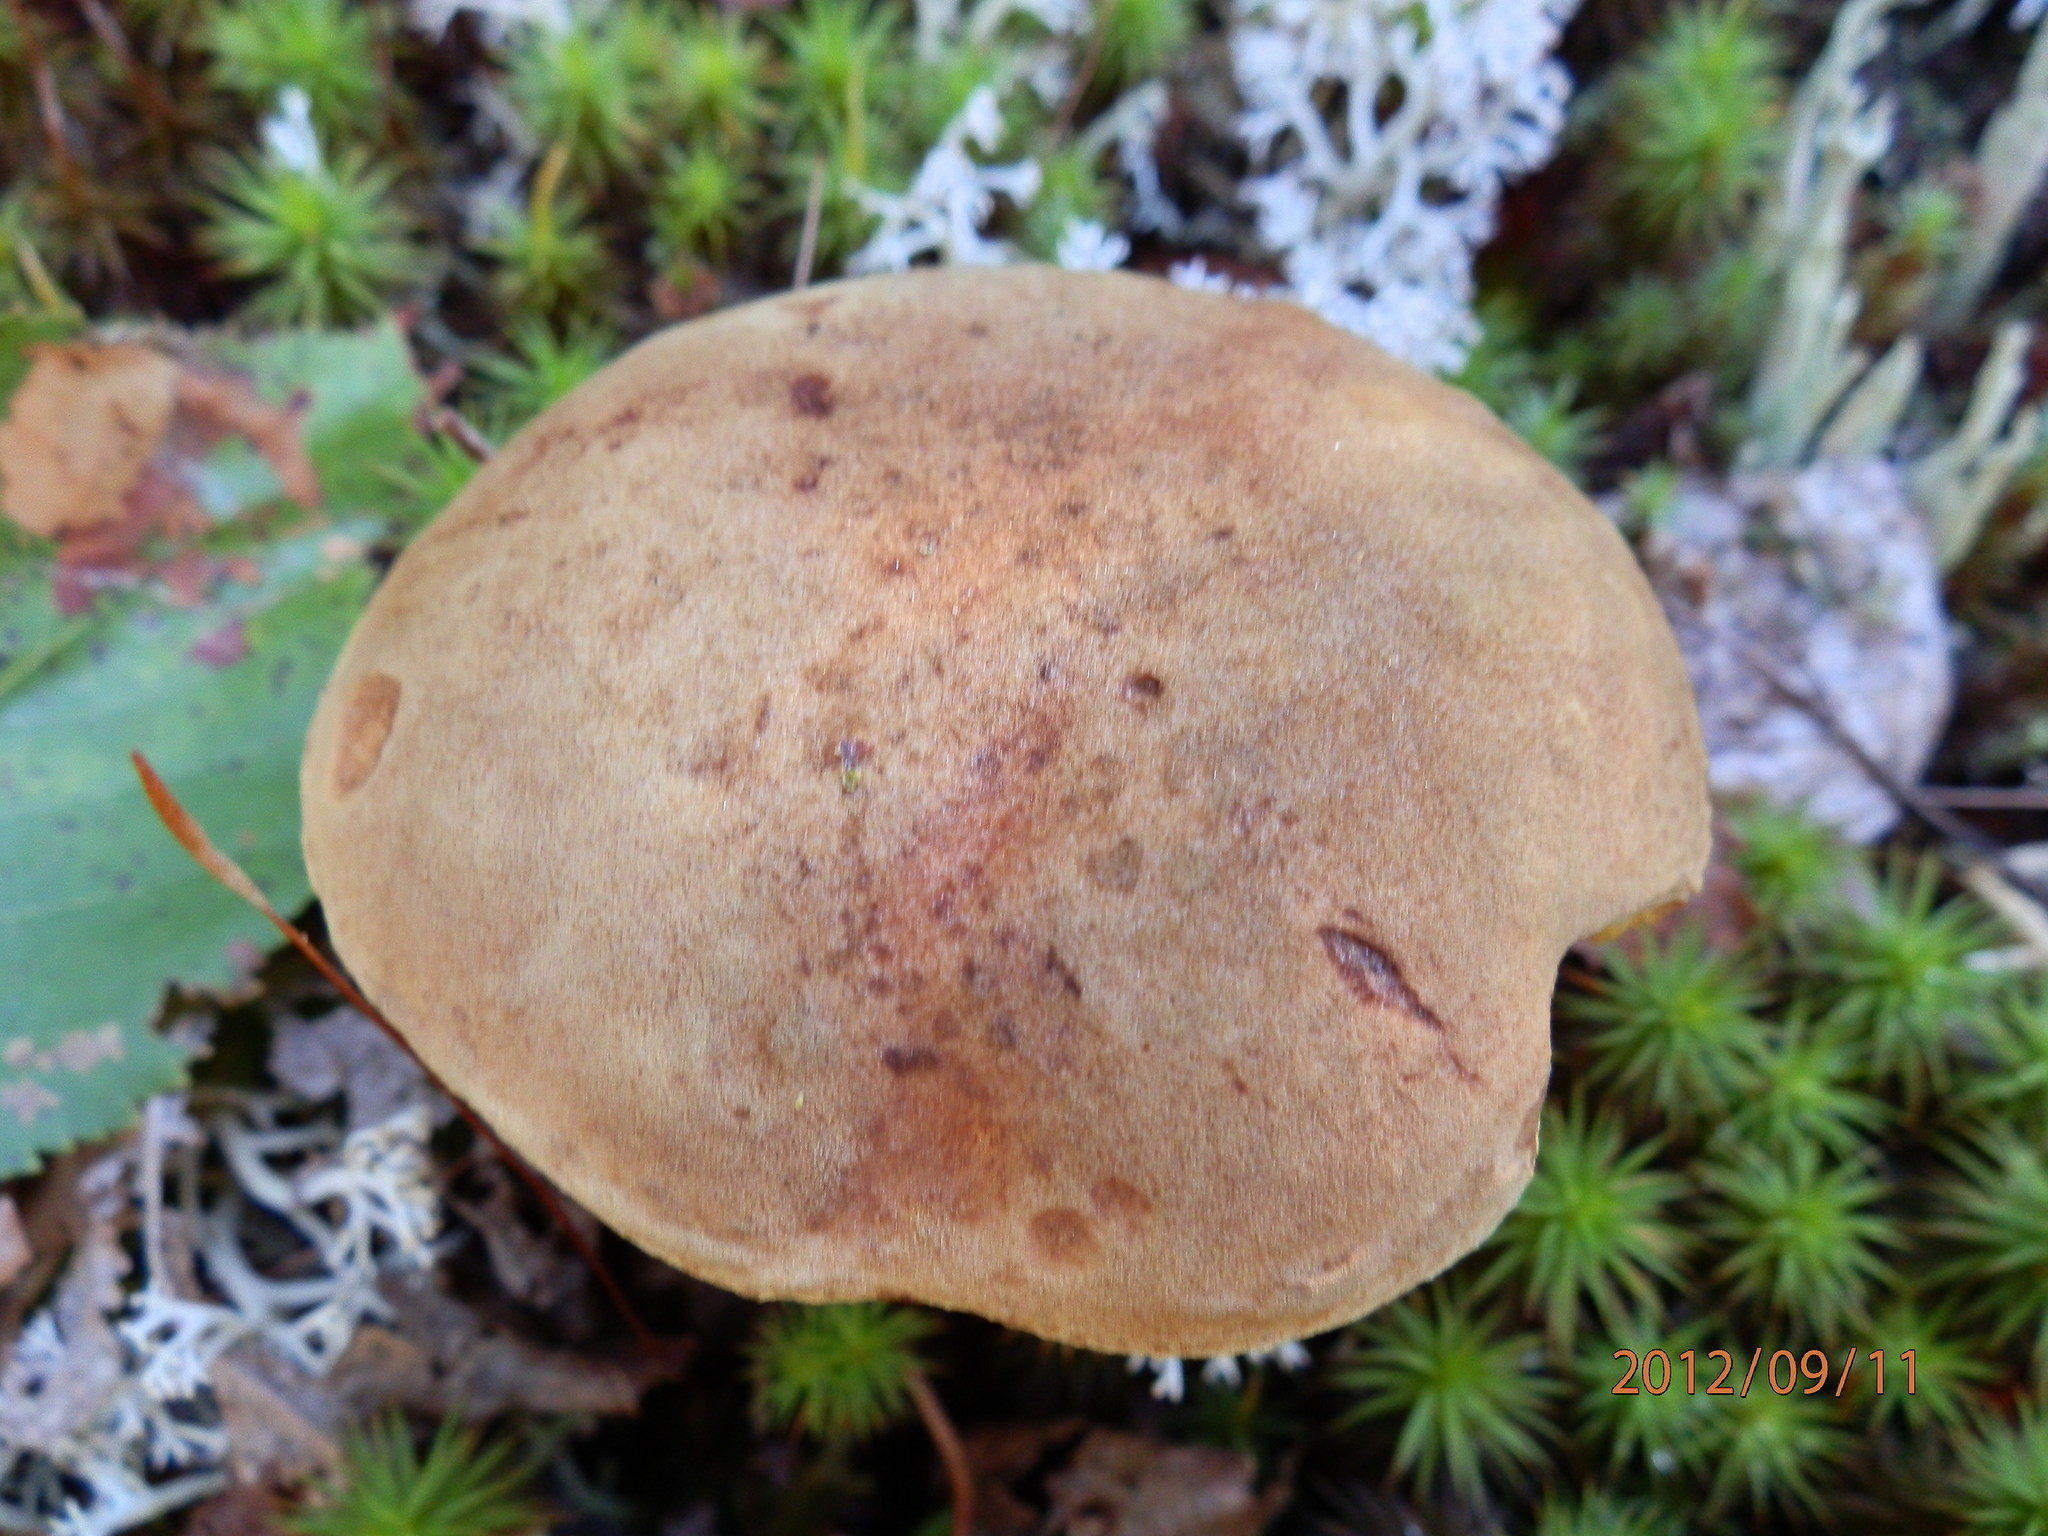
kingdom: Fungi
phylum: Basidiomycota
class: Agaricomycetes
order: Boletales
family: Boletaceae
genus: Leccinum
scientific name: Leccinum scabrum
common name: Blushing bolete
